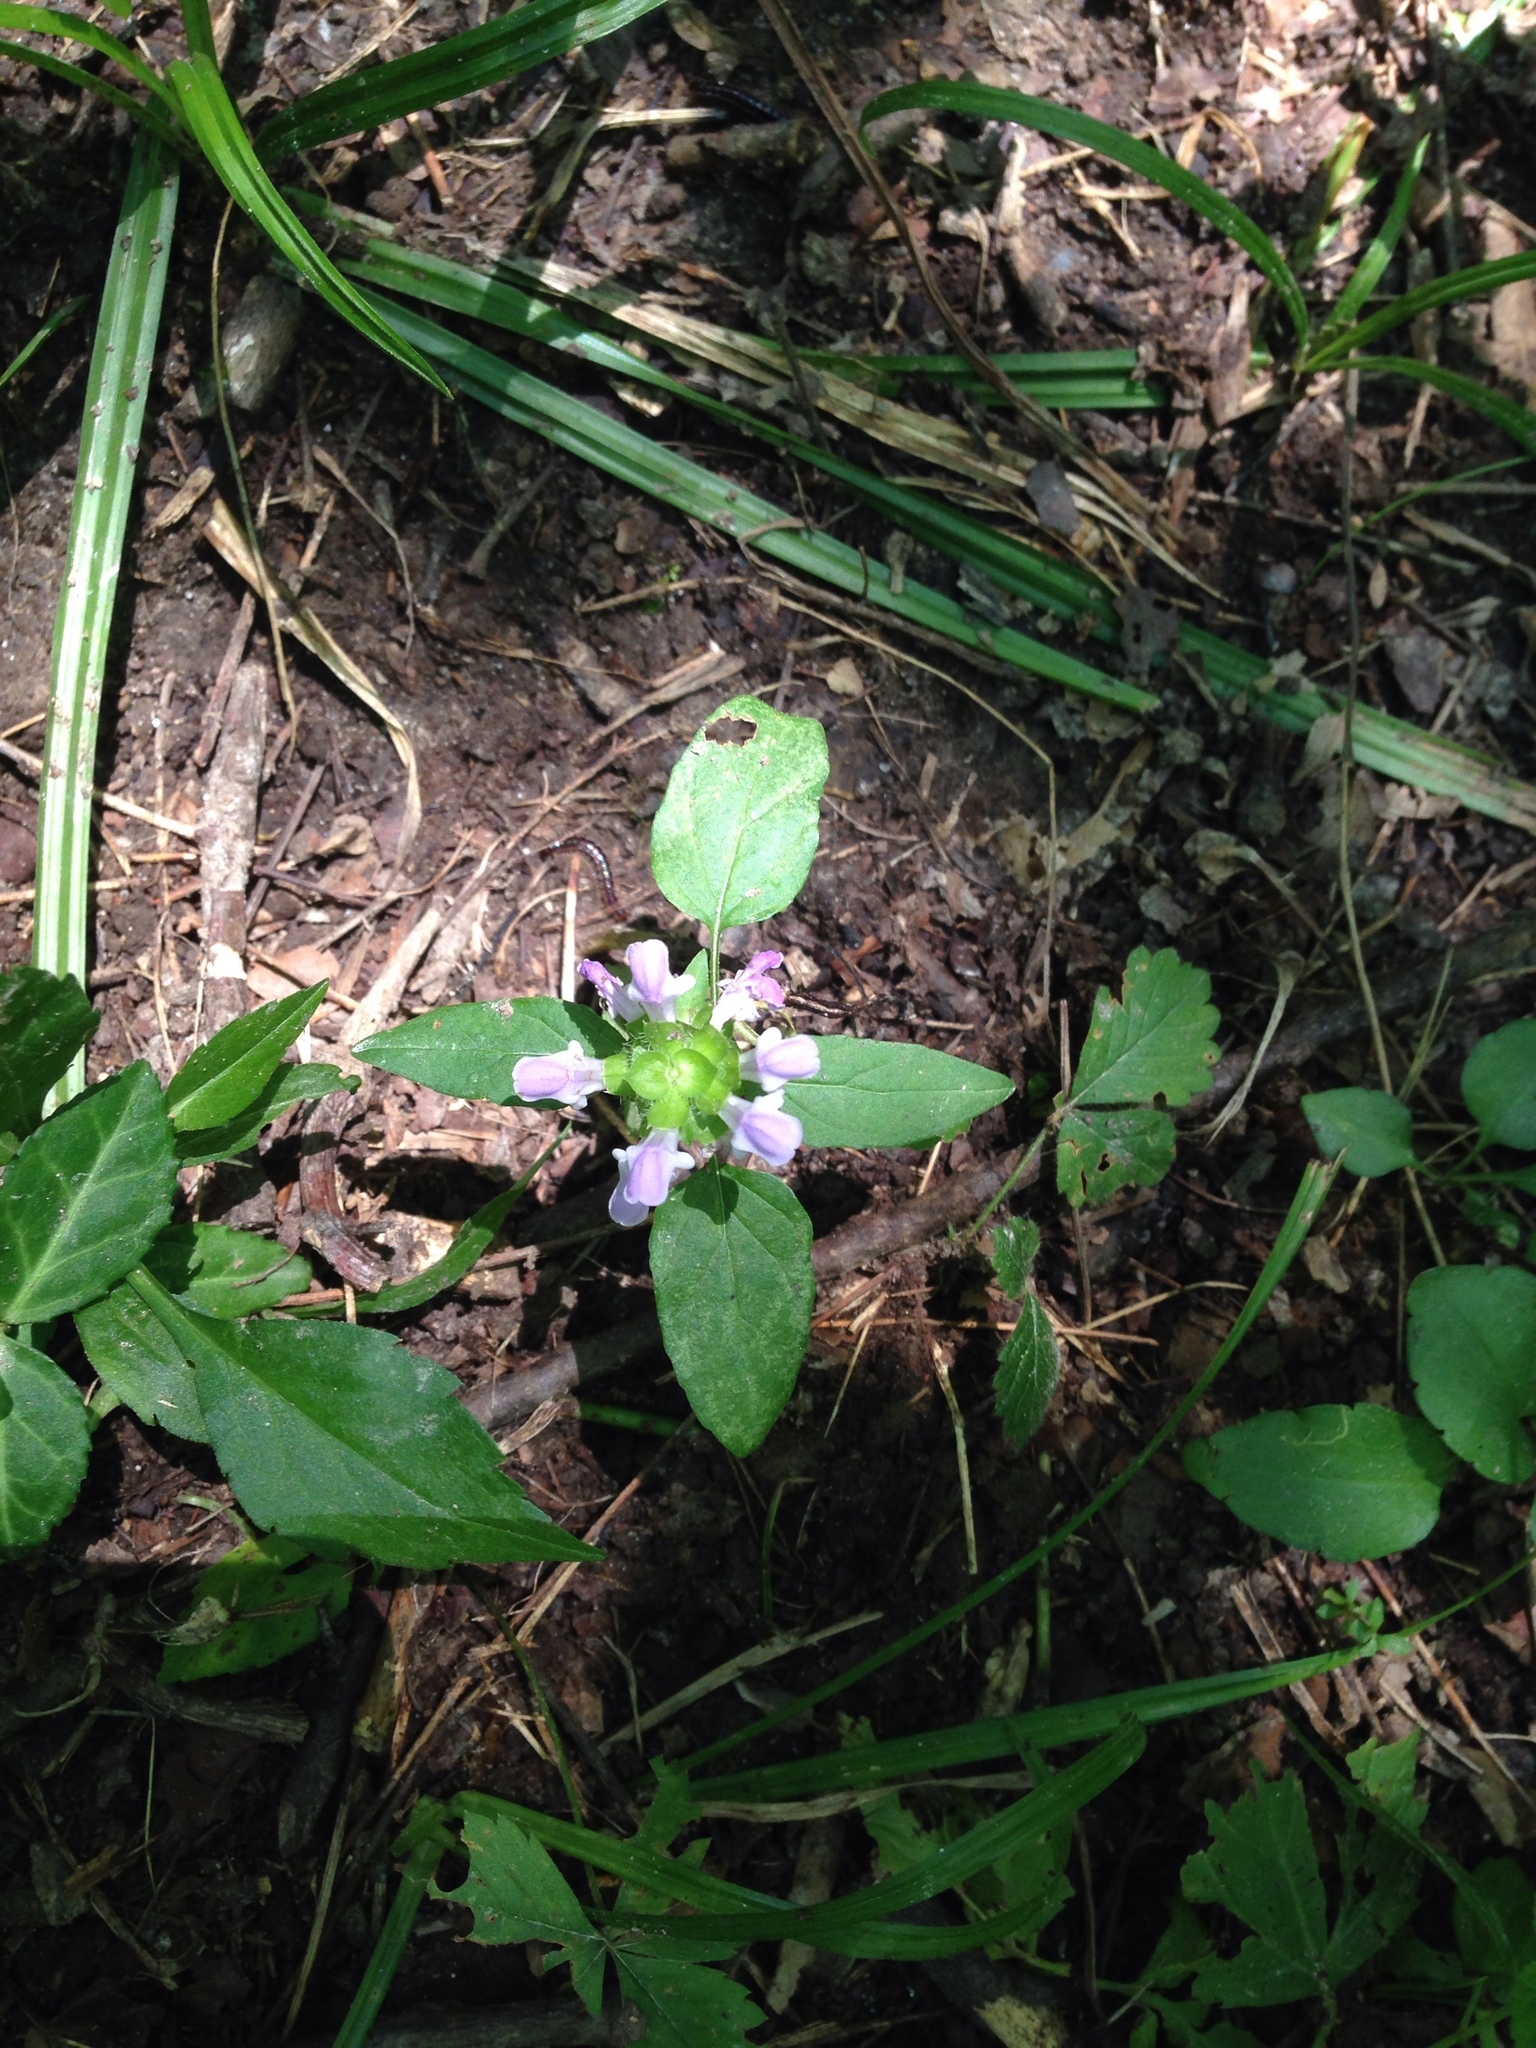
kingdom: Plantae
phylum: Tracheophyta
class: Magnoliopsida
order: Lamiales
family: Lamiaceae
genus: Prunella
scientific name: Prunella vulgaris
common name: Heal-all
